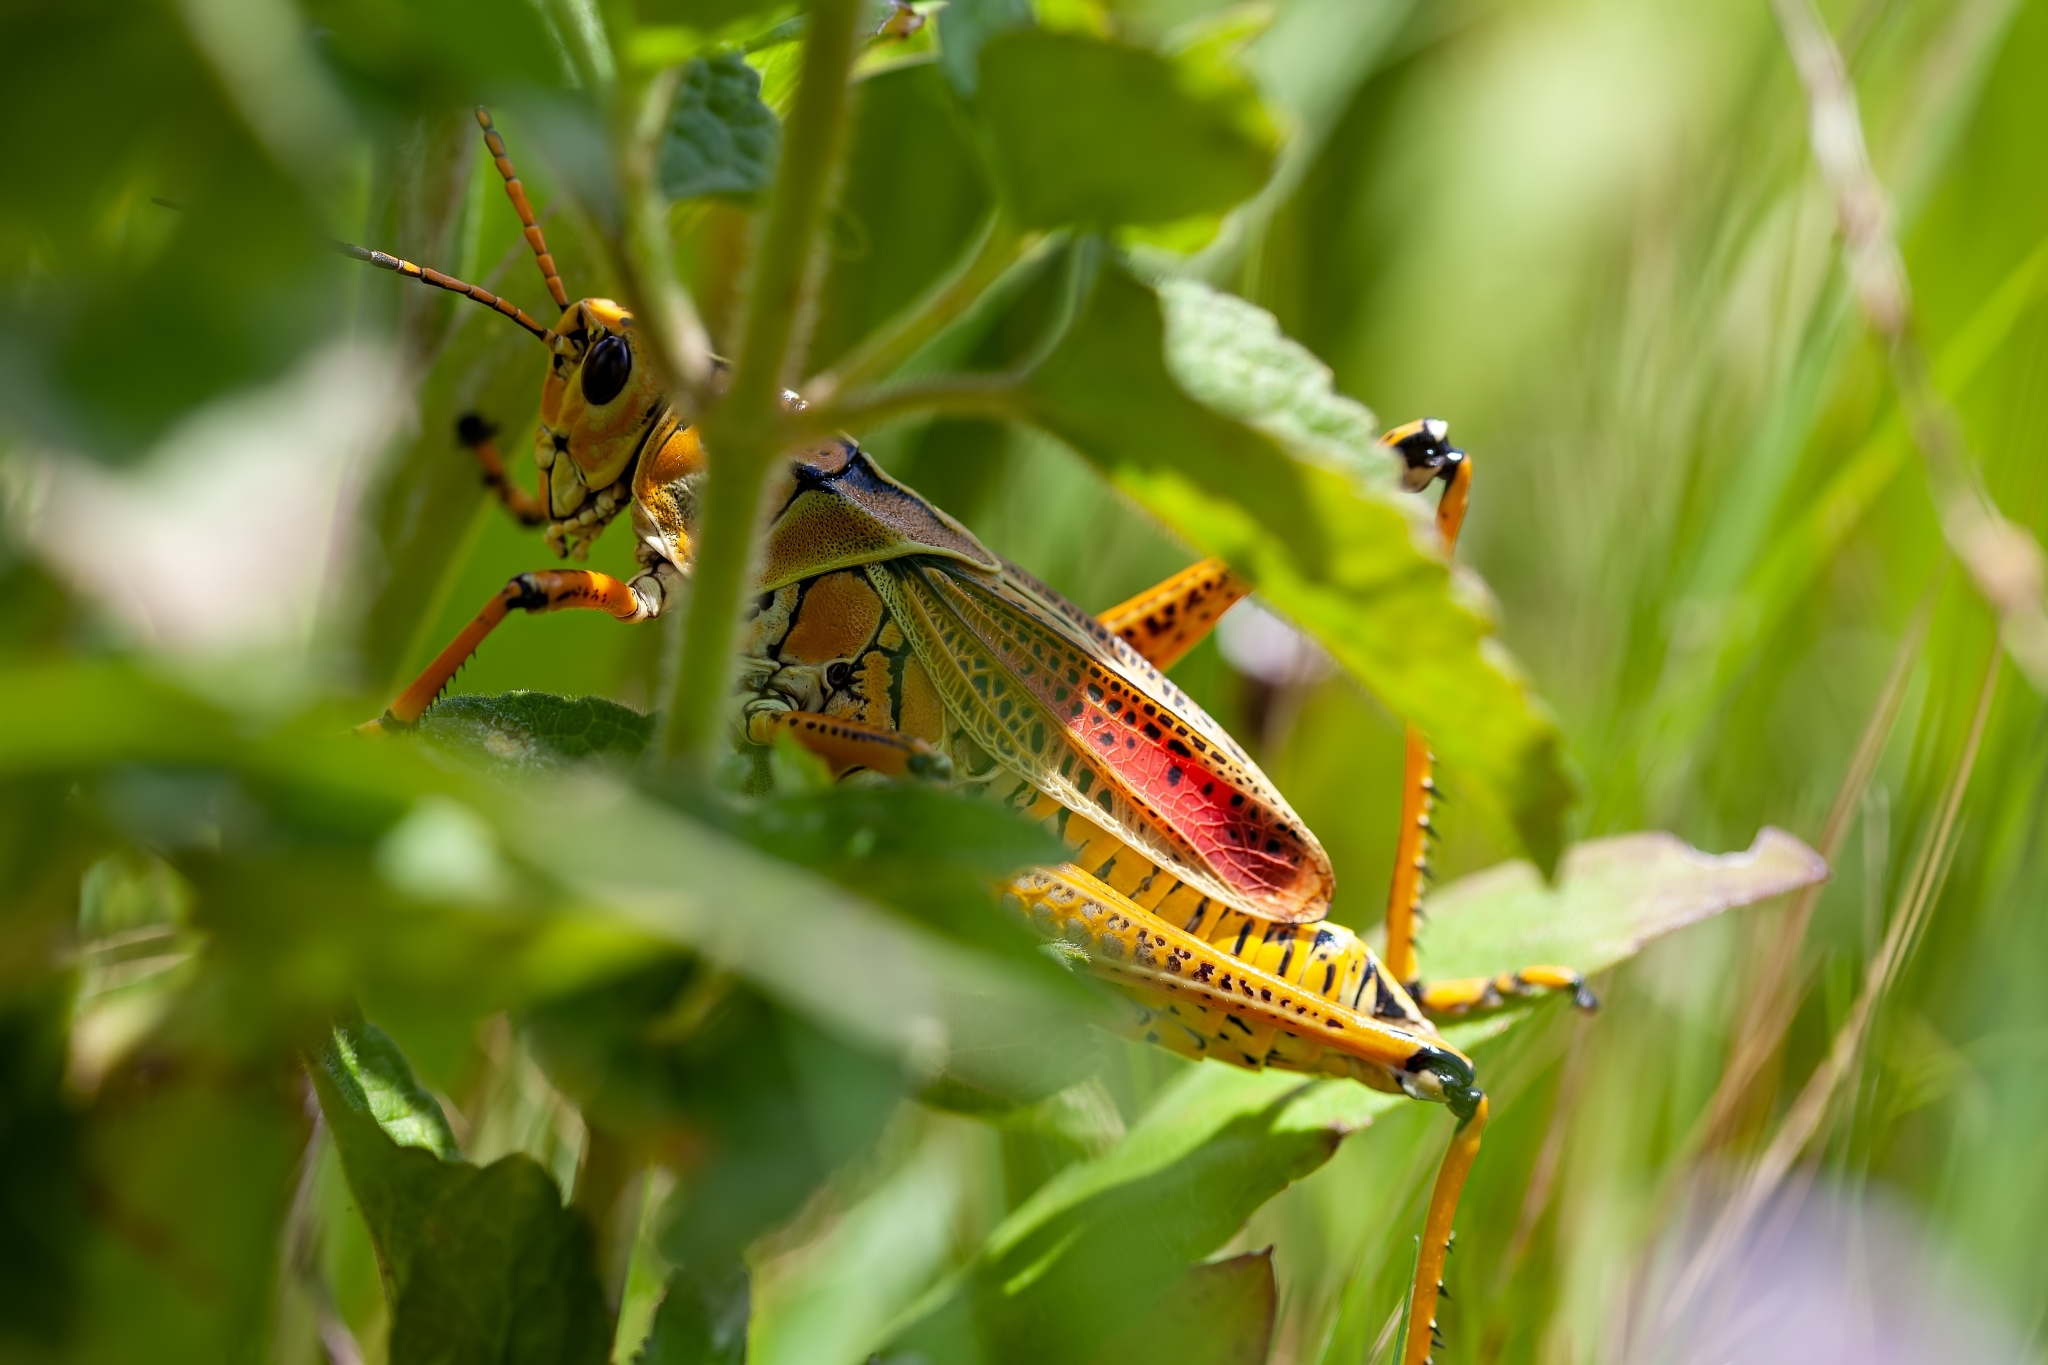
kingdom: Animalia
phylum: Arthropoda
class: Insecta
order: Orthoptera
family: Romaleidae
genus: Romalea
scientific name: Romalea microptera
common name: Eastern lubber grasshopper
